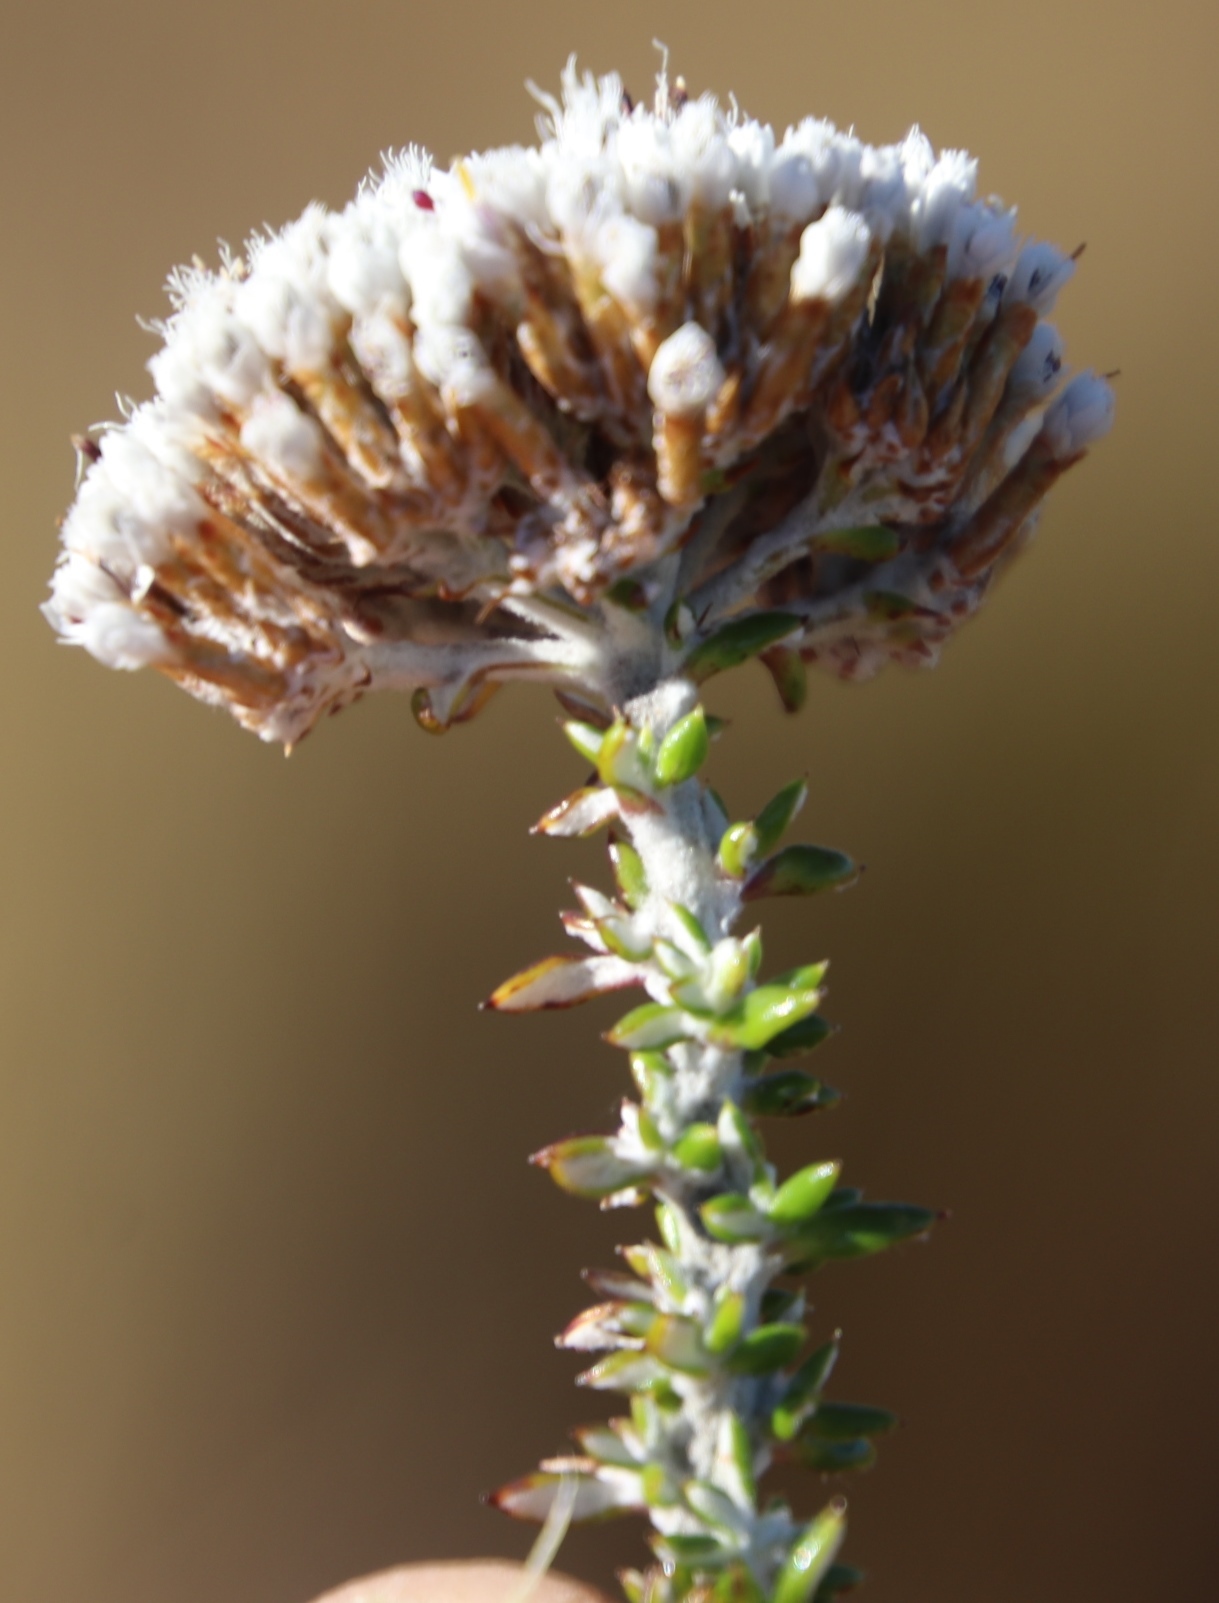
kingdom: Plantae
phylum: Tracheophyta
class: Magnoliopsida
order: Asterales
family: Asteraceae
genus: Metalasia
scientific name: Metalasia densa
